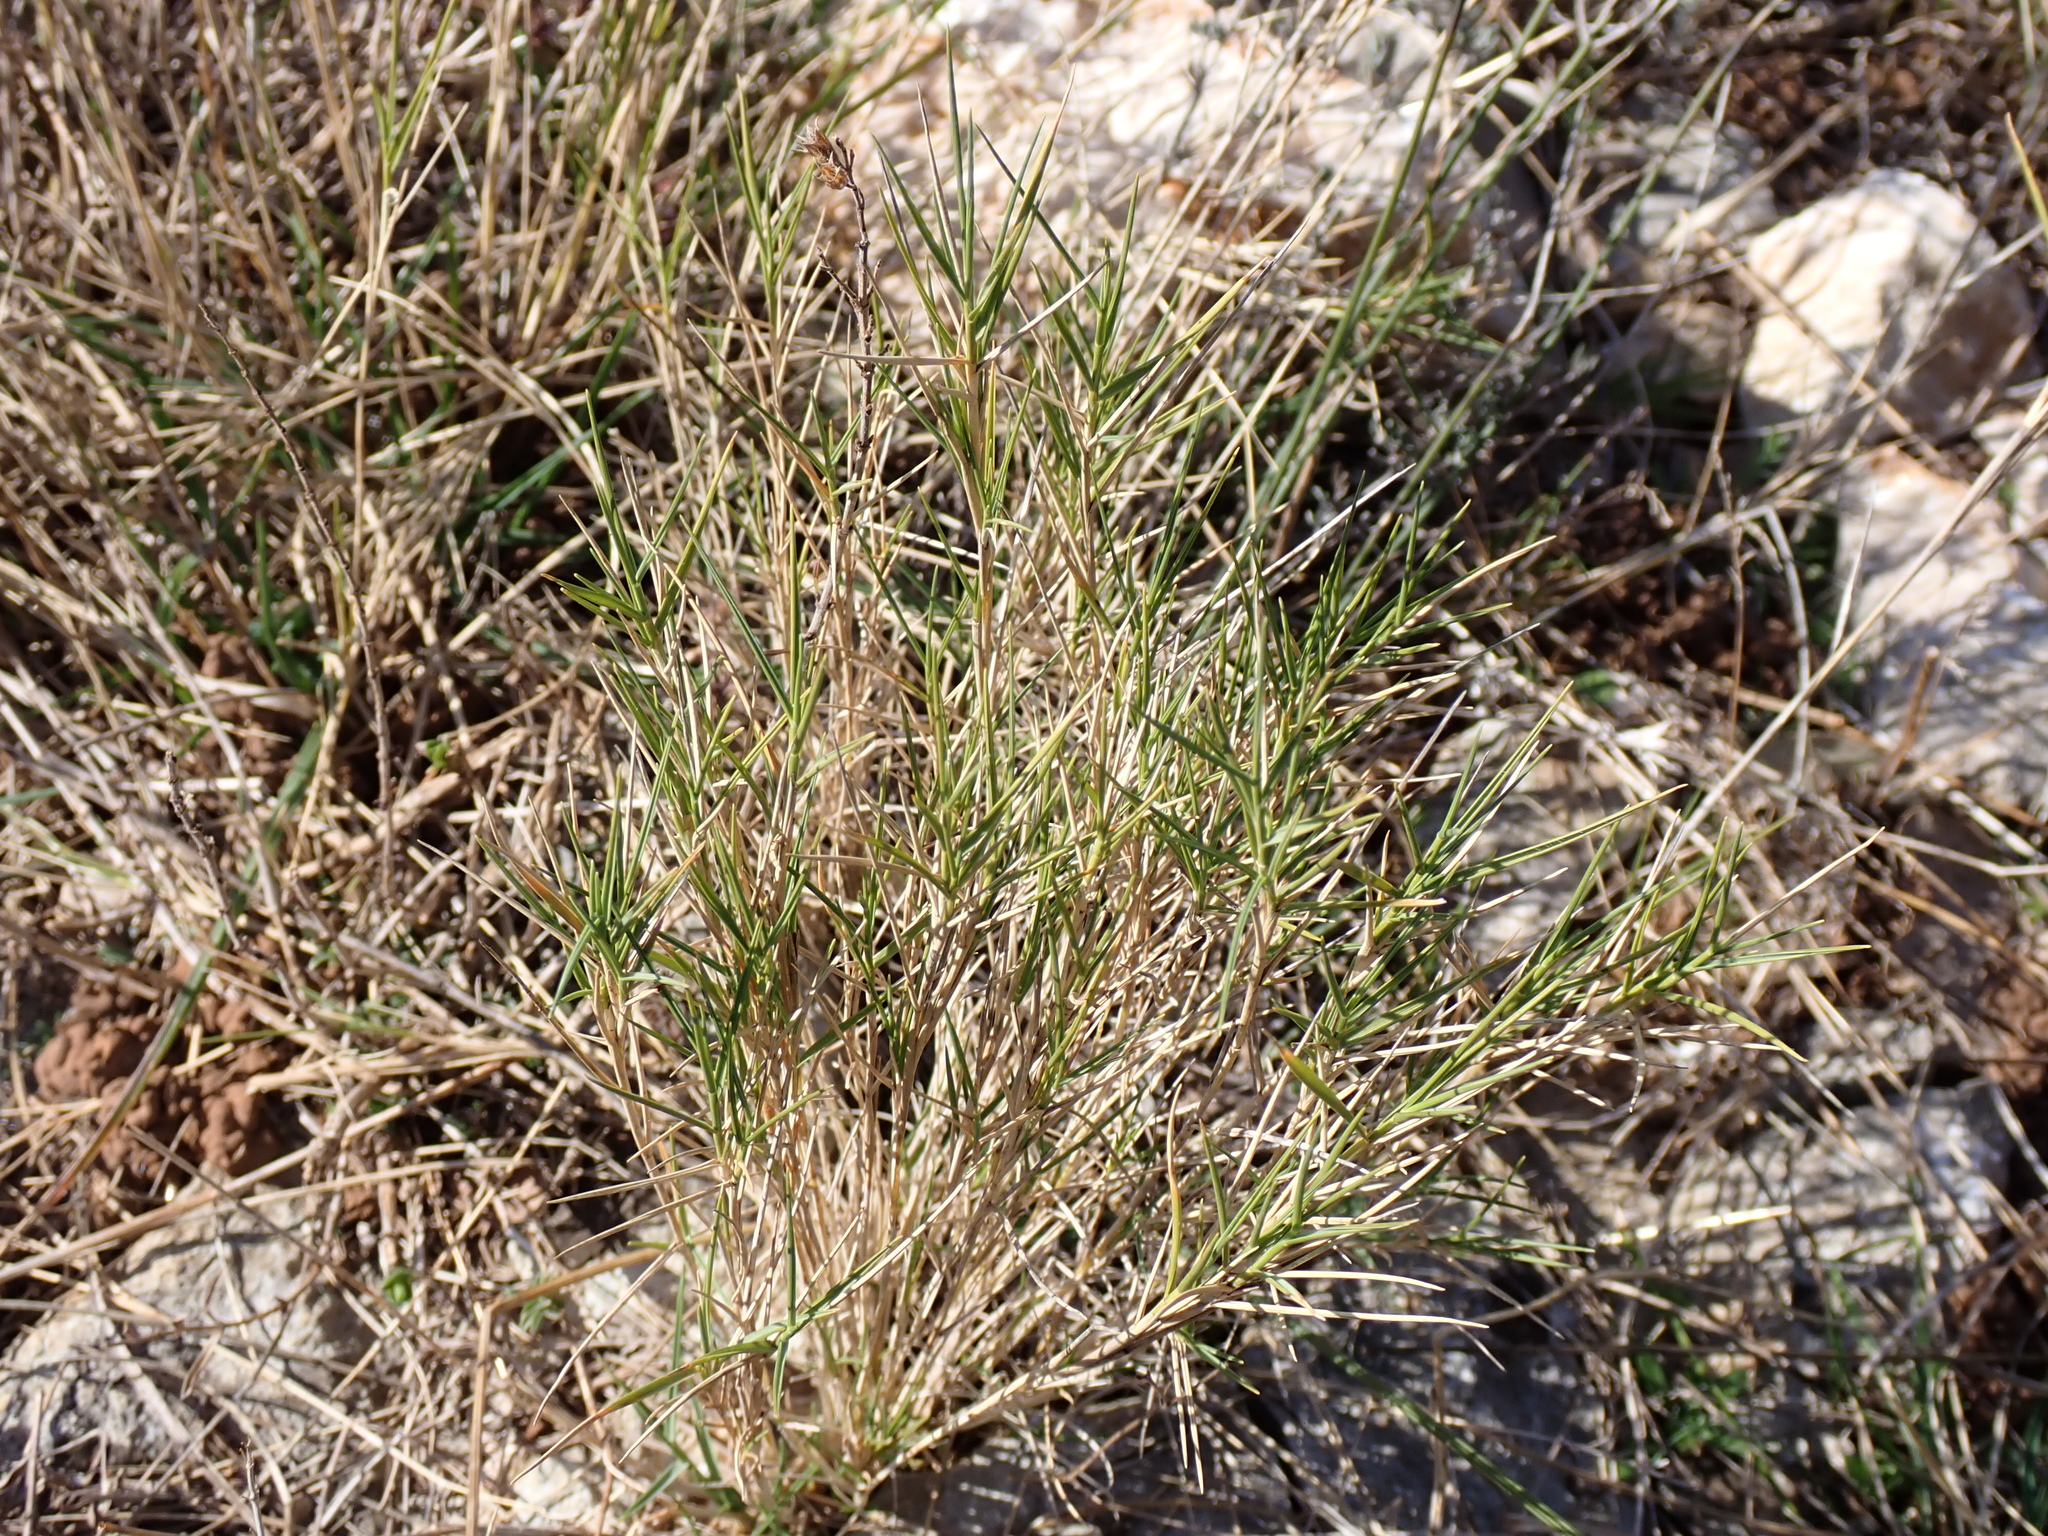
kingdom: Plantae
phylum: Tracheophyta
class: Liliopsida
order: Poales
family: Poaceae
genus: Brachypodium
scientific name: Brachypodium retusum
